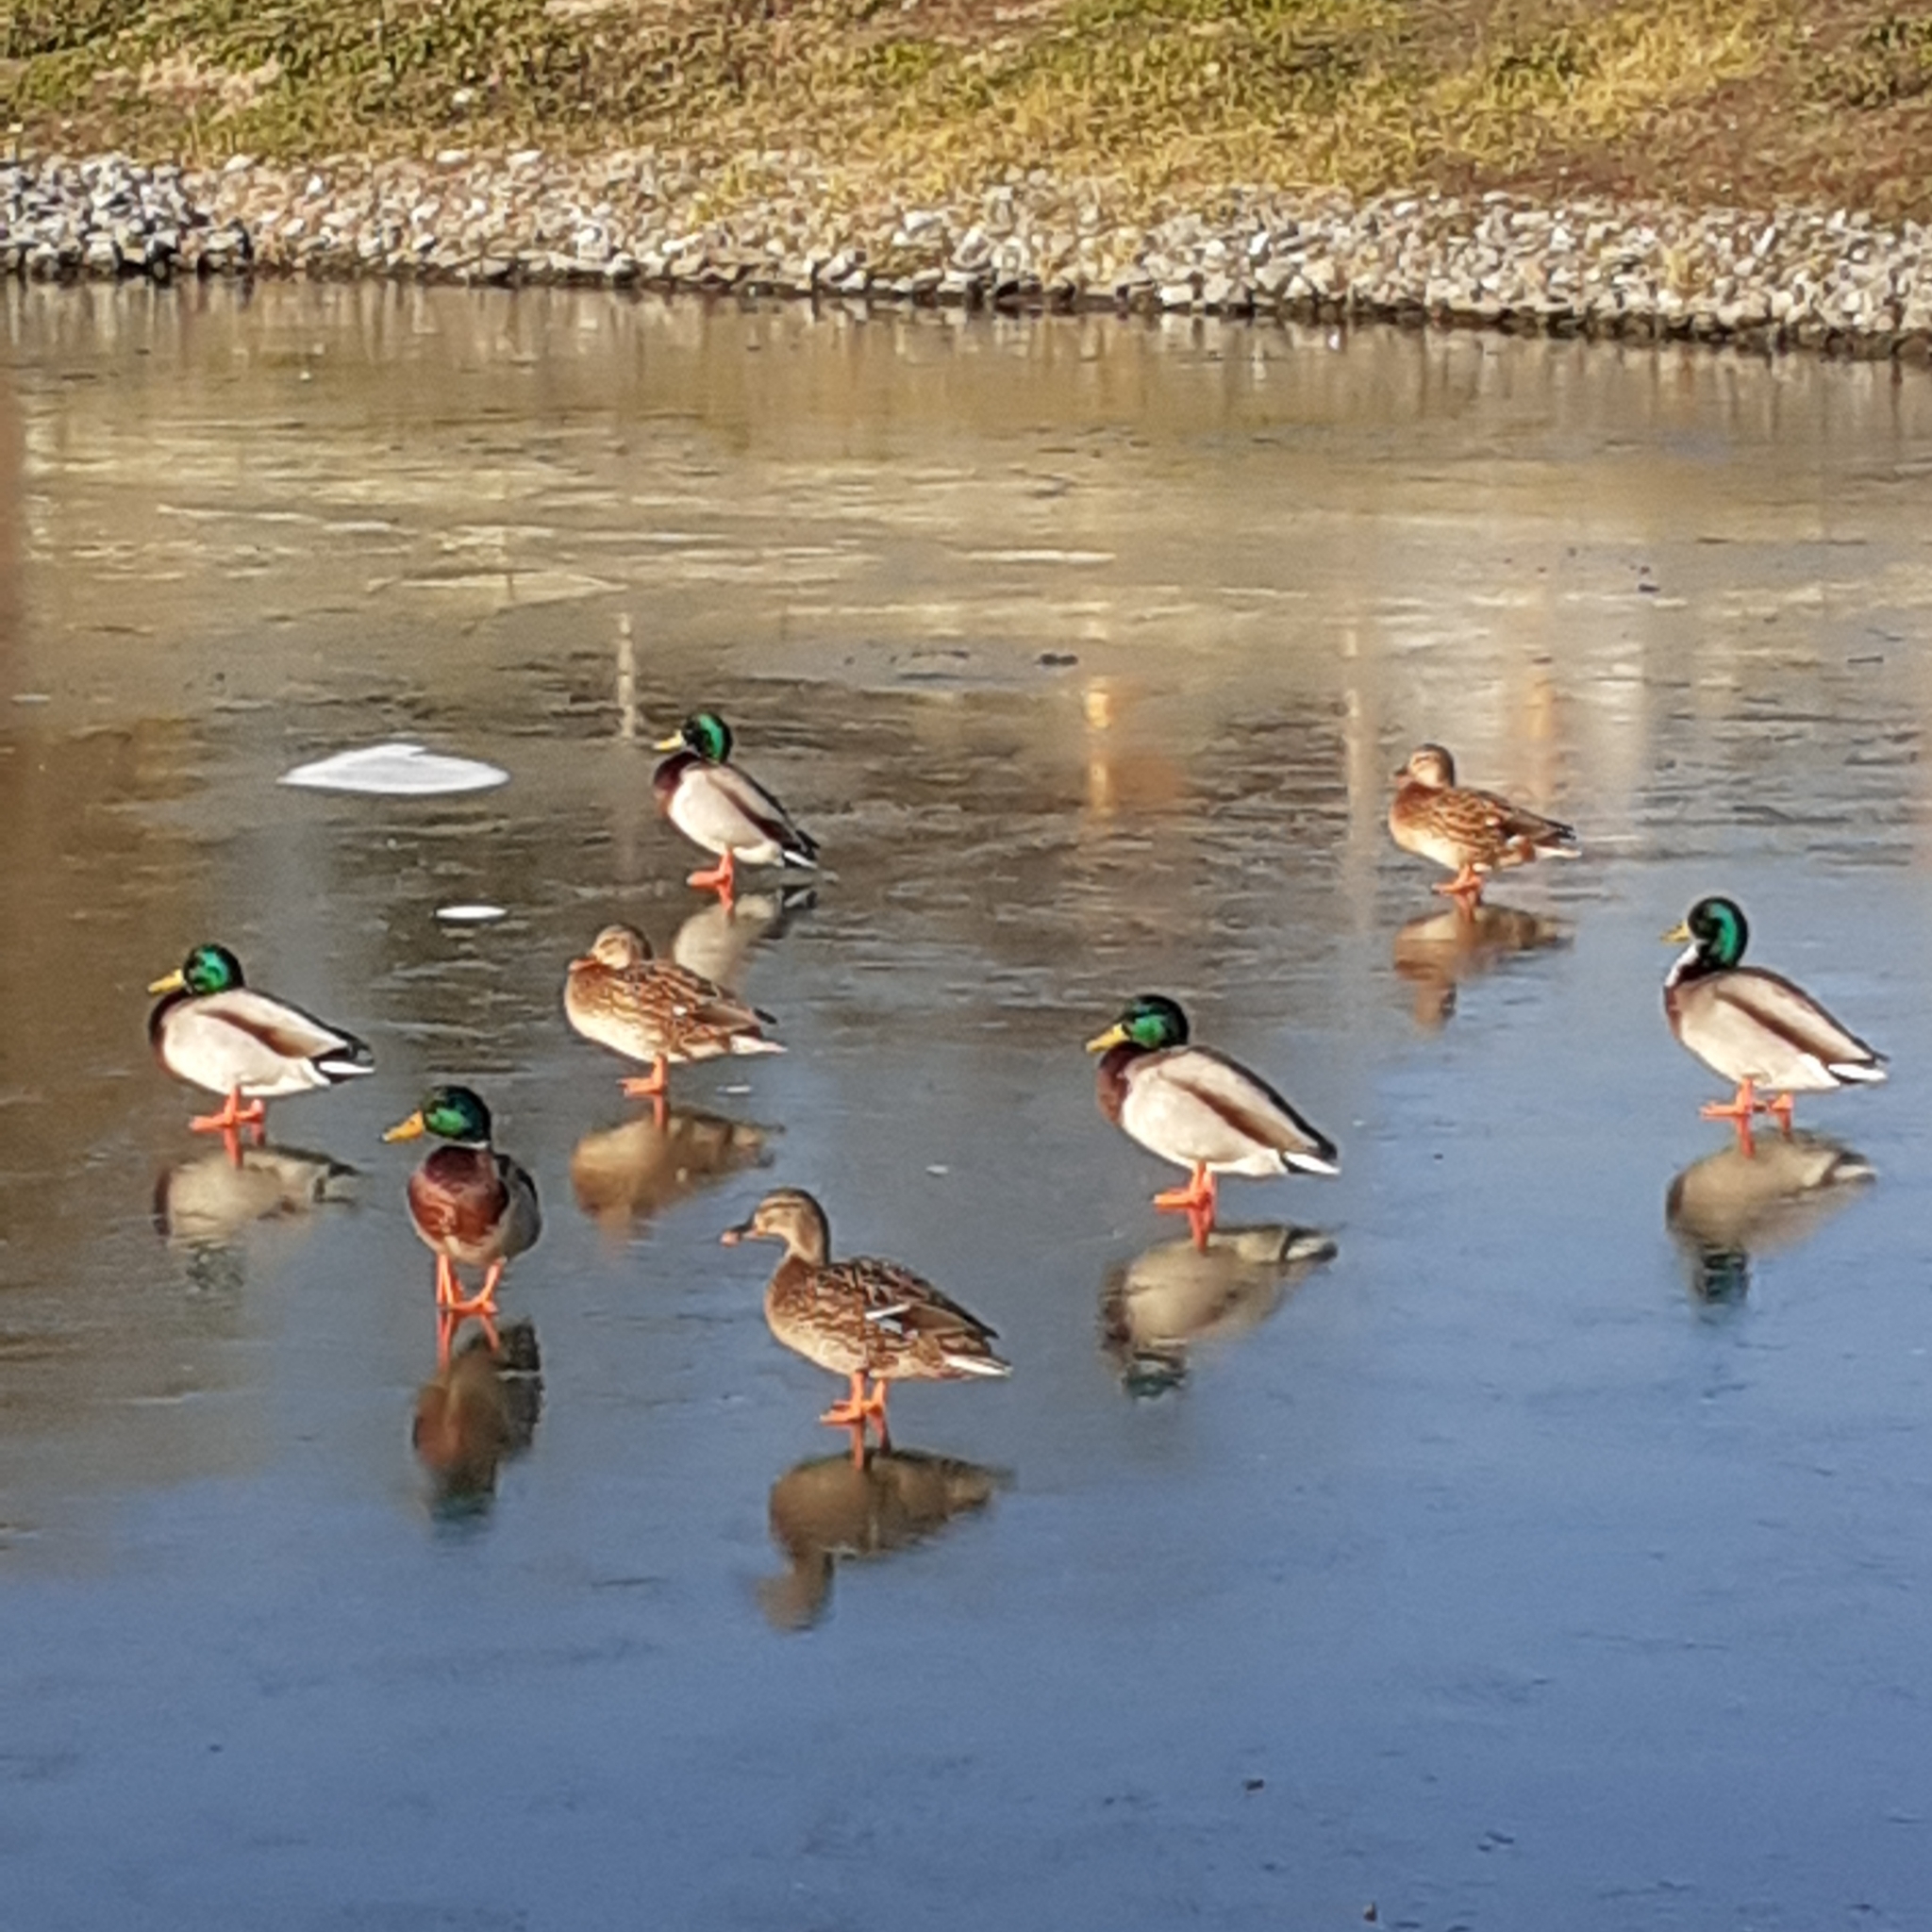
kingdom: Animalia
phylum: Chordata
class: Aves
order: Anseriformes
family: Anatidae
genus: Anas
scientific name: Anas platyrhynchos
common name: Mallard
